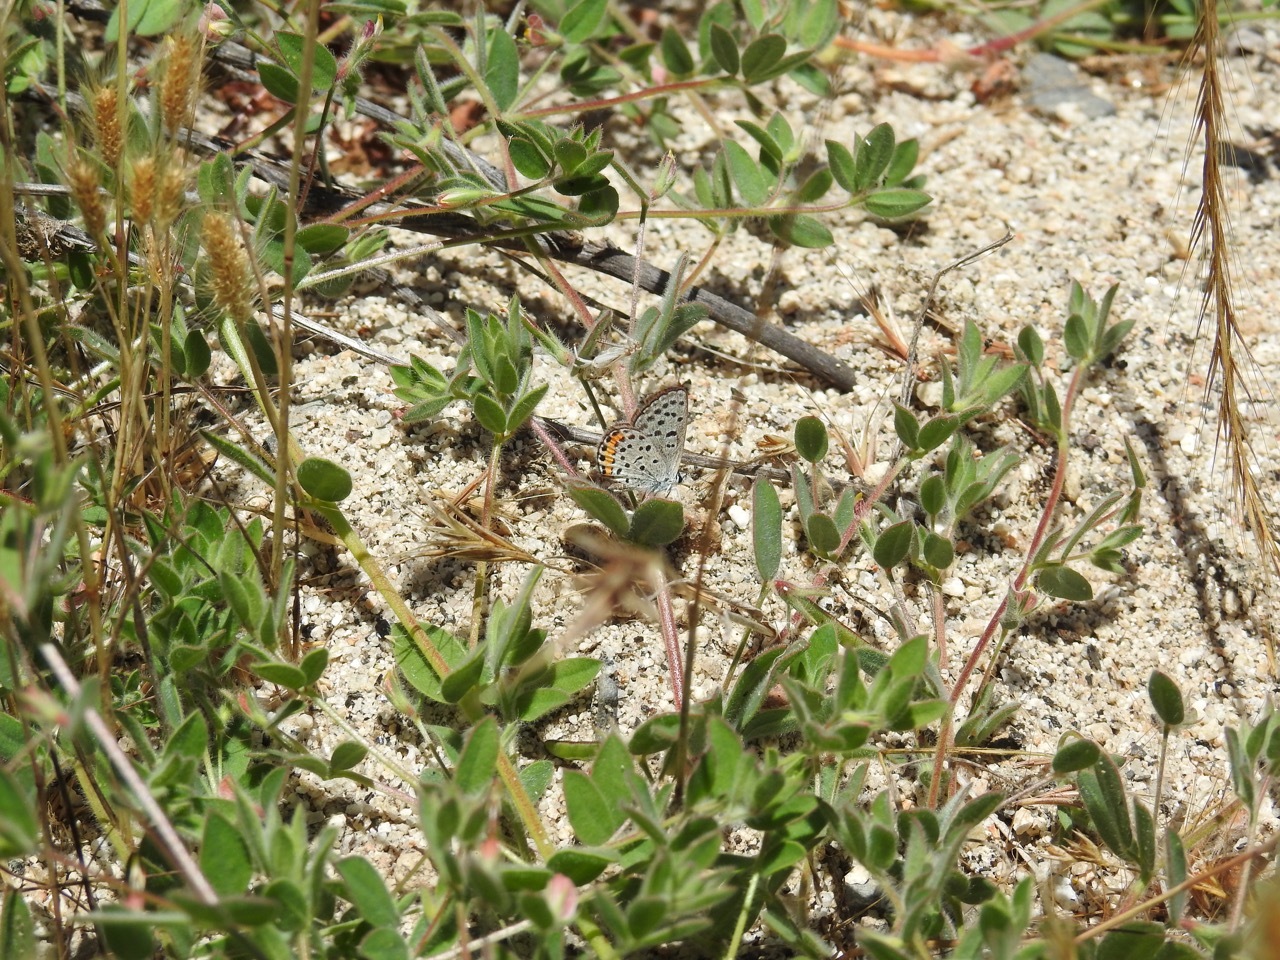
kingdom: Animalia
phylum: Arthropoda
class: Insecta
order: Lepidoptera
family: Lycaenidae
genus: Icaricia
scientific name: Icaricia acmon
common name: Acmon blue
